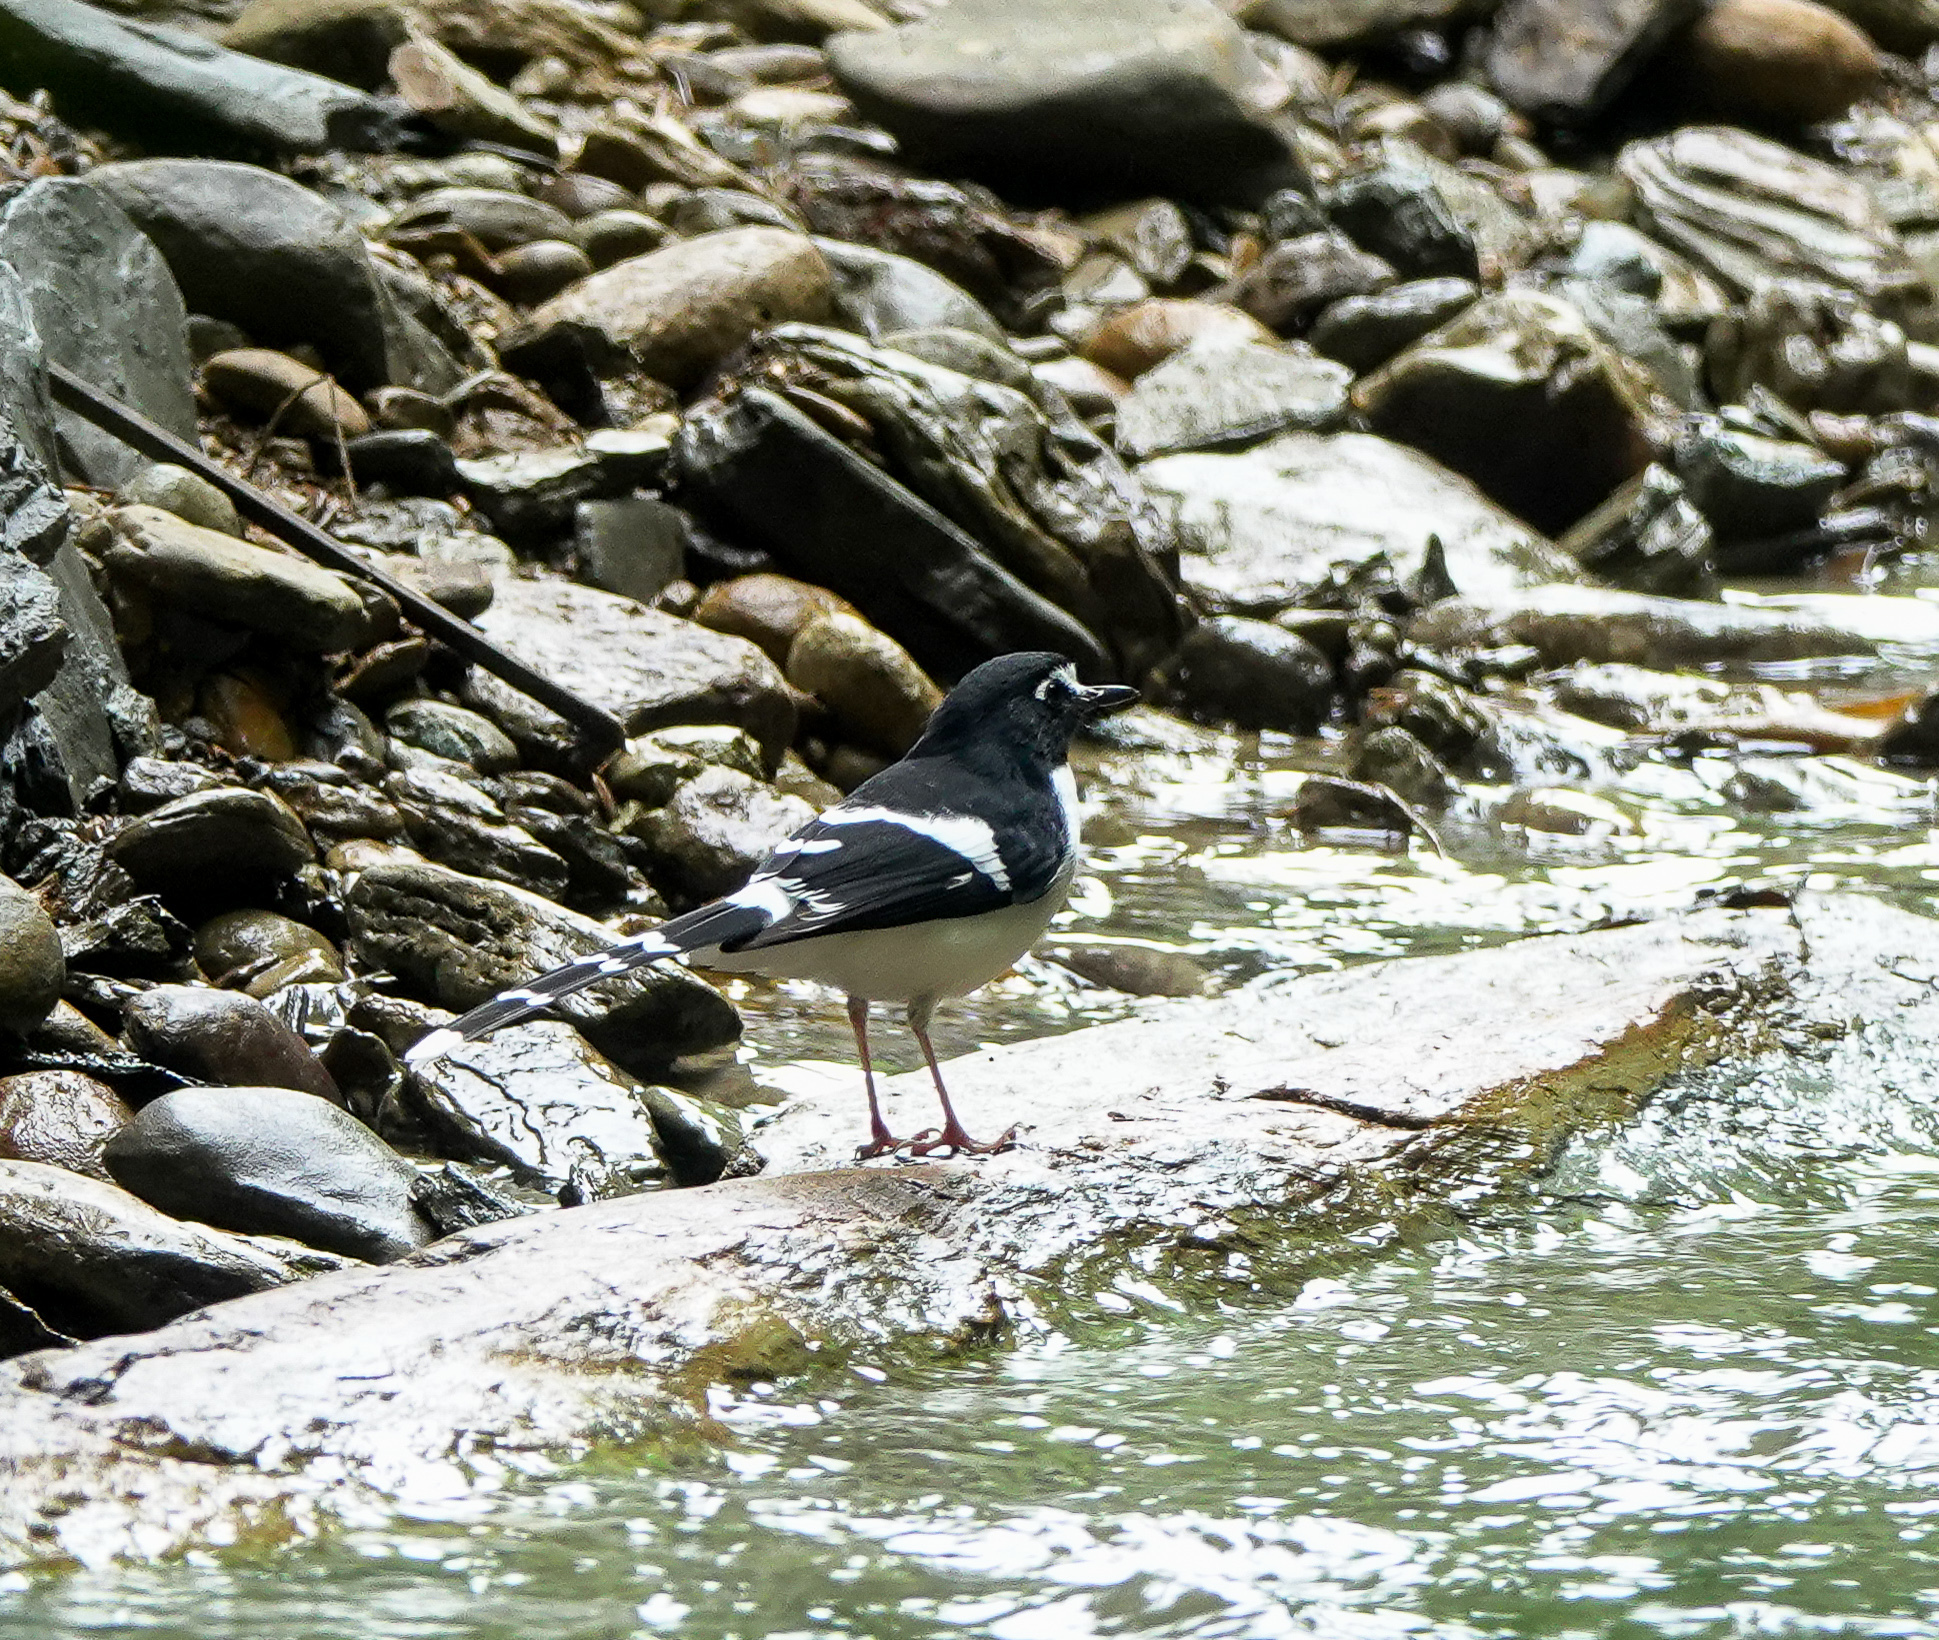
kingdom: Animalia
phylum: Chordata
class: Aves
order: Passeriformes
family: Muscicapidae
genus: Enicurus
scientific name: Enicurus immaculatus
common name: Black-backed forktail
